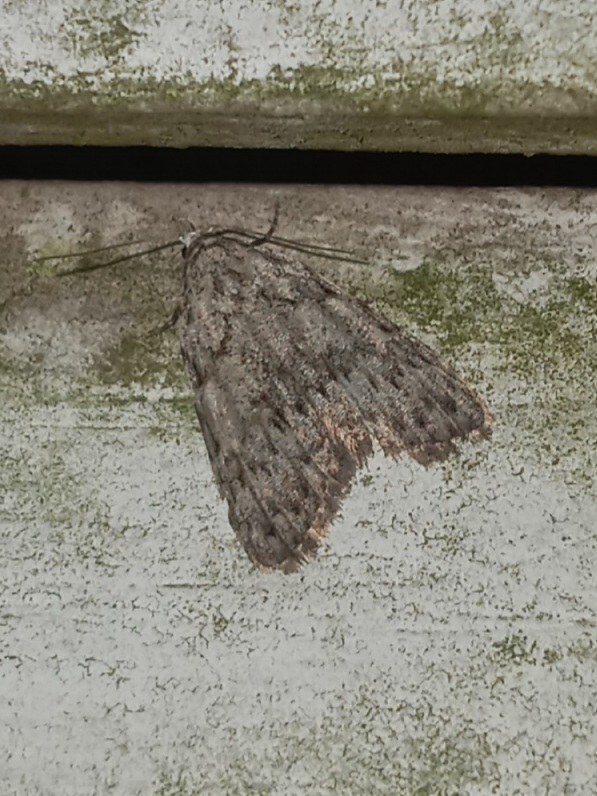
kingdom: Animalia
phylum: Arthropoda
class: Insecta
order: Lepidoptera
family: Nolidae
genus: Nola
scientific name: Nola clethrae
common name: Sweet pepperbush nola moth
